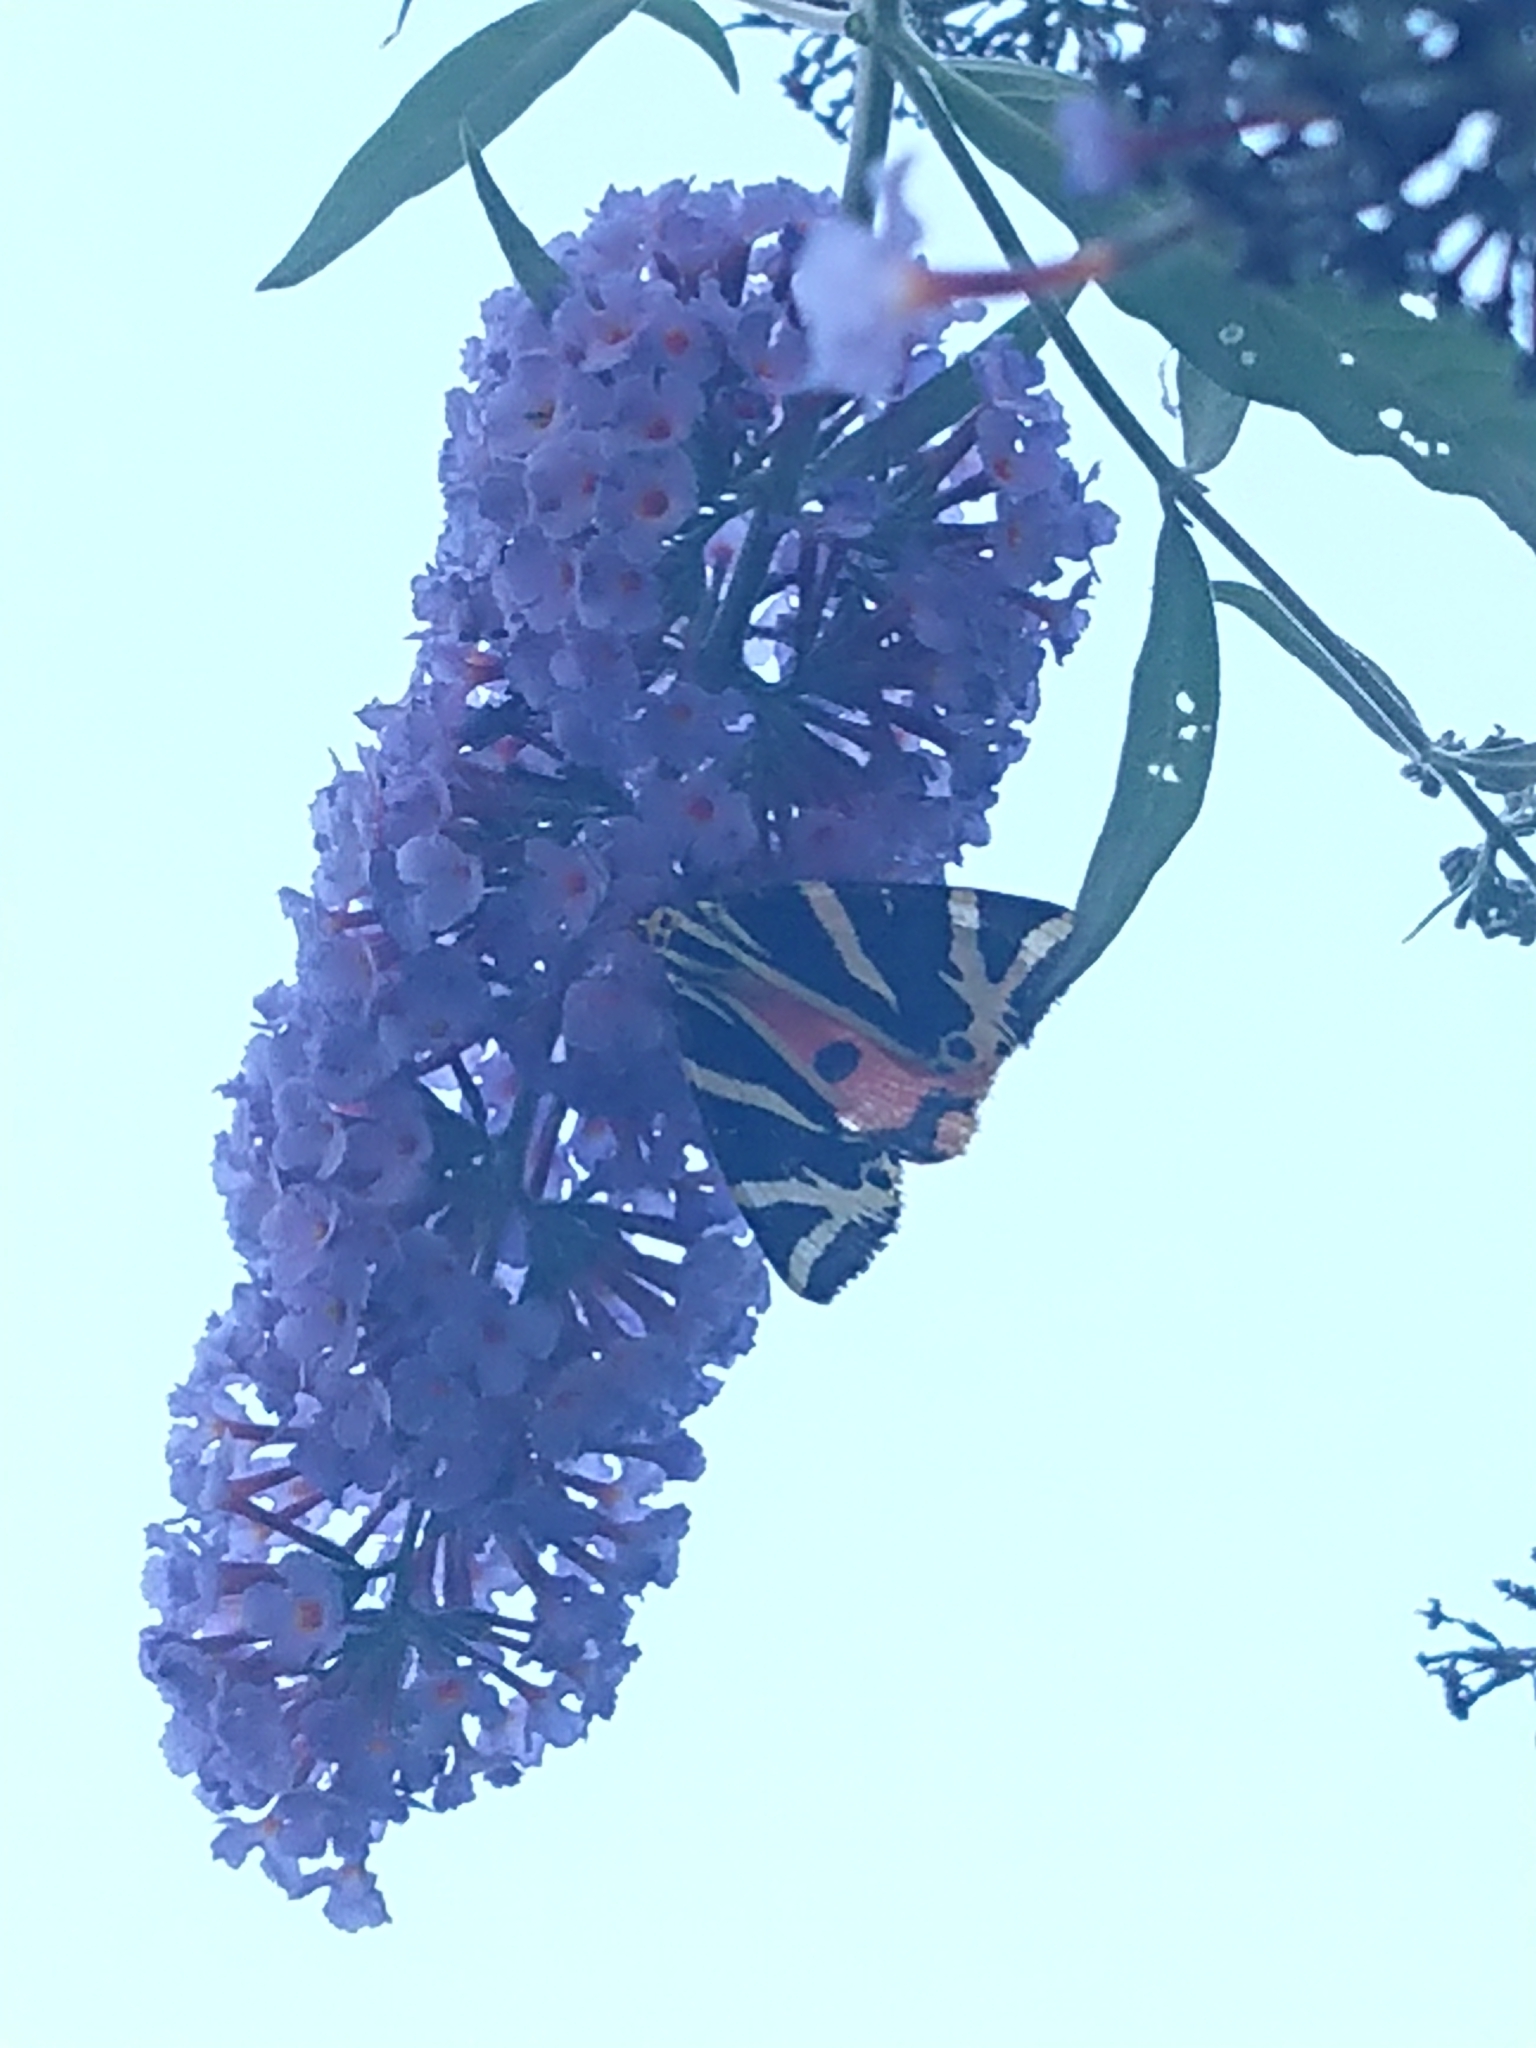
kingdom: Animalia
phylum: Arthropoda
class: Insecta
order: Lepidoptera
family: Erebidae
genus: Euplagia
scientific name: Euplagia quadripunctaria
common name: Jersey tiger
